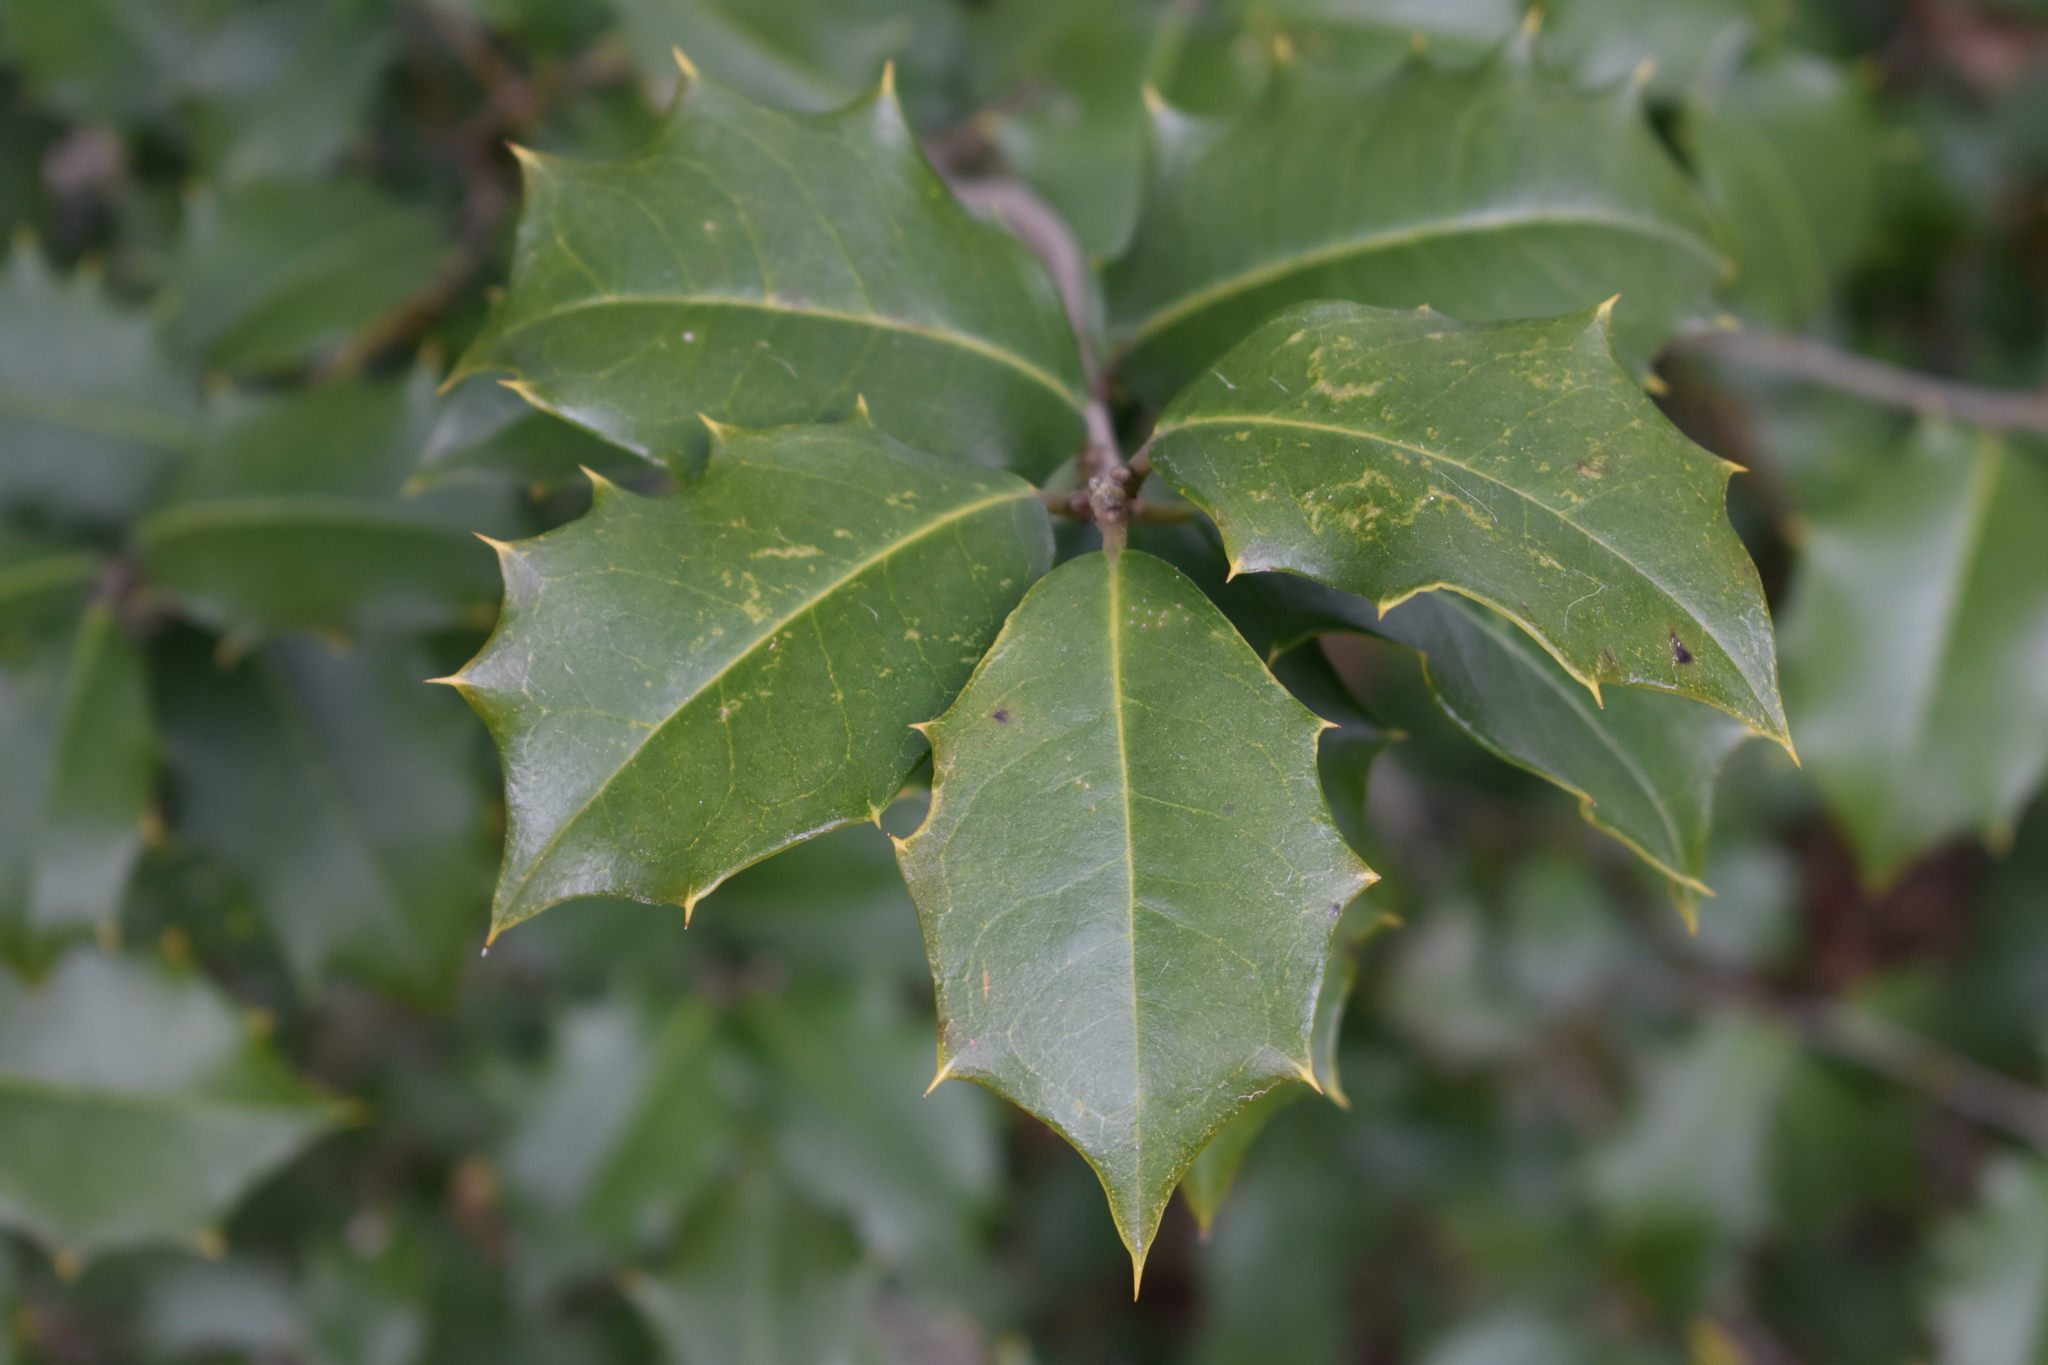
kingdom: Plantae
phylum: Tracheophyta
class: Magnoliopsida
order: Aquifoliales
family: Aquifoliaceae
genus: Ilex
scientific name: Ilex opaca
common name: American holly
